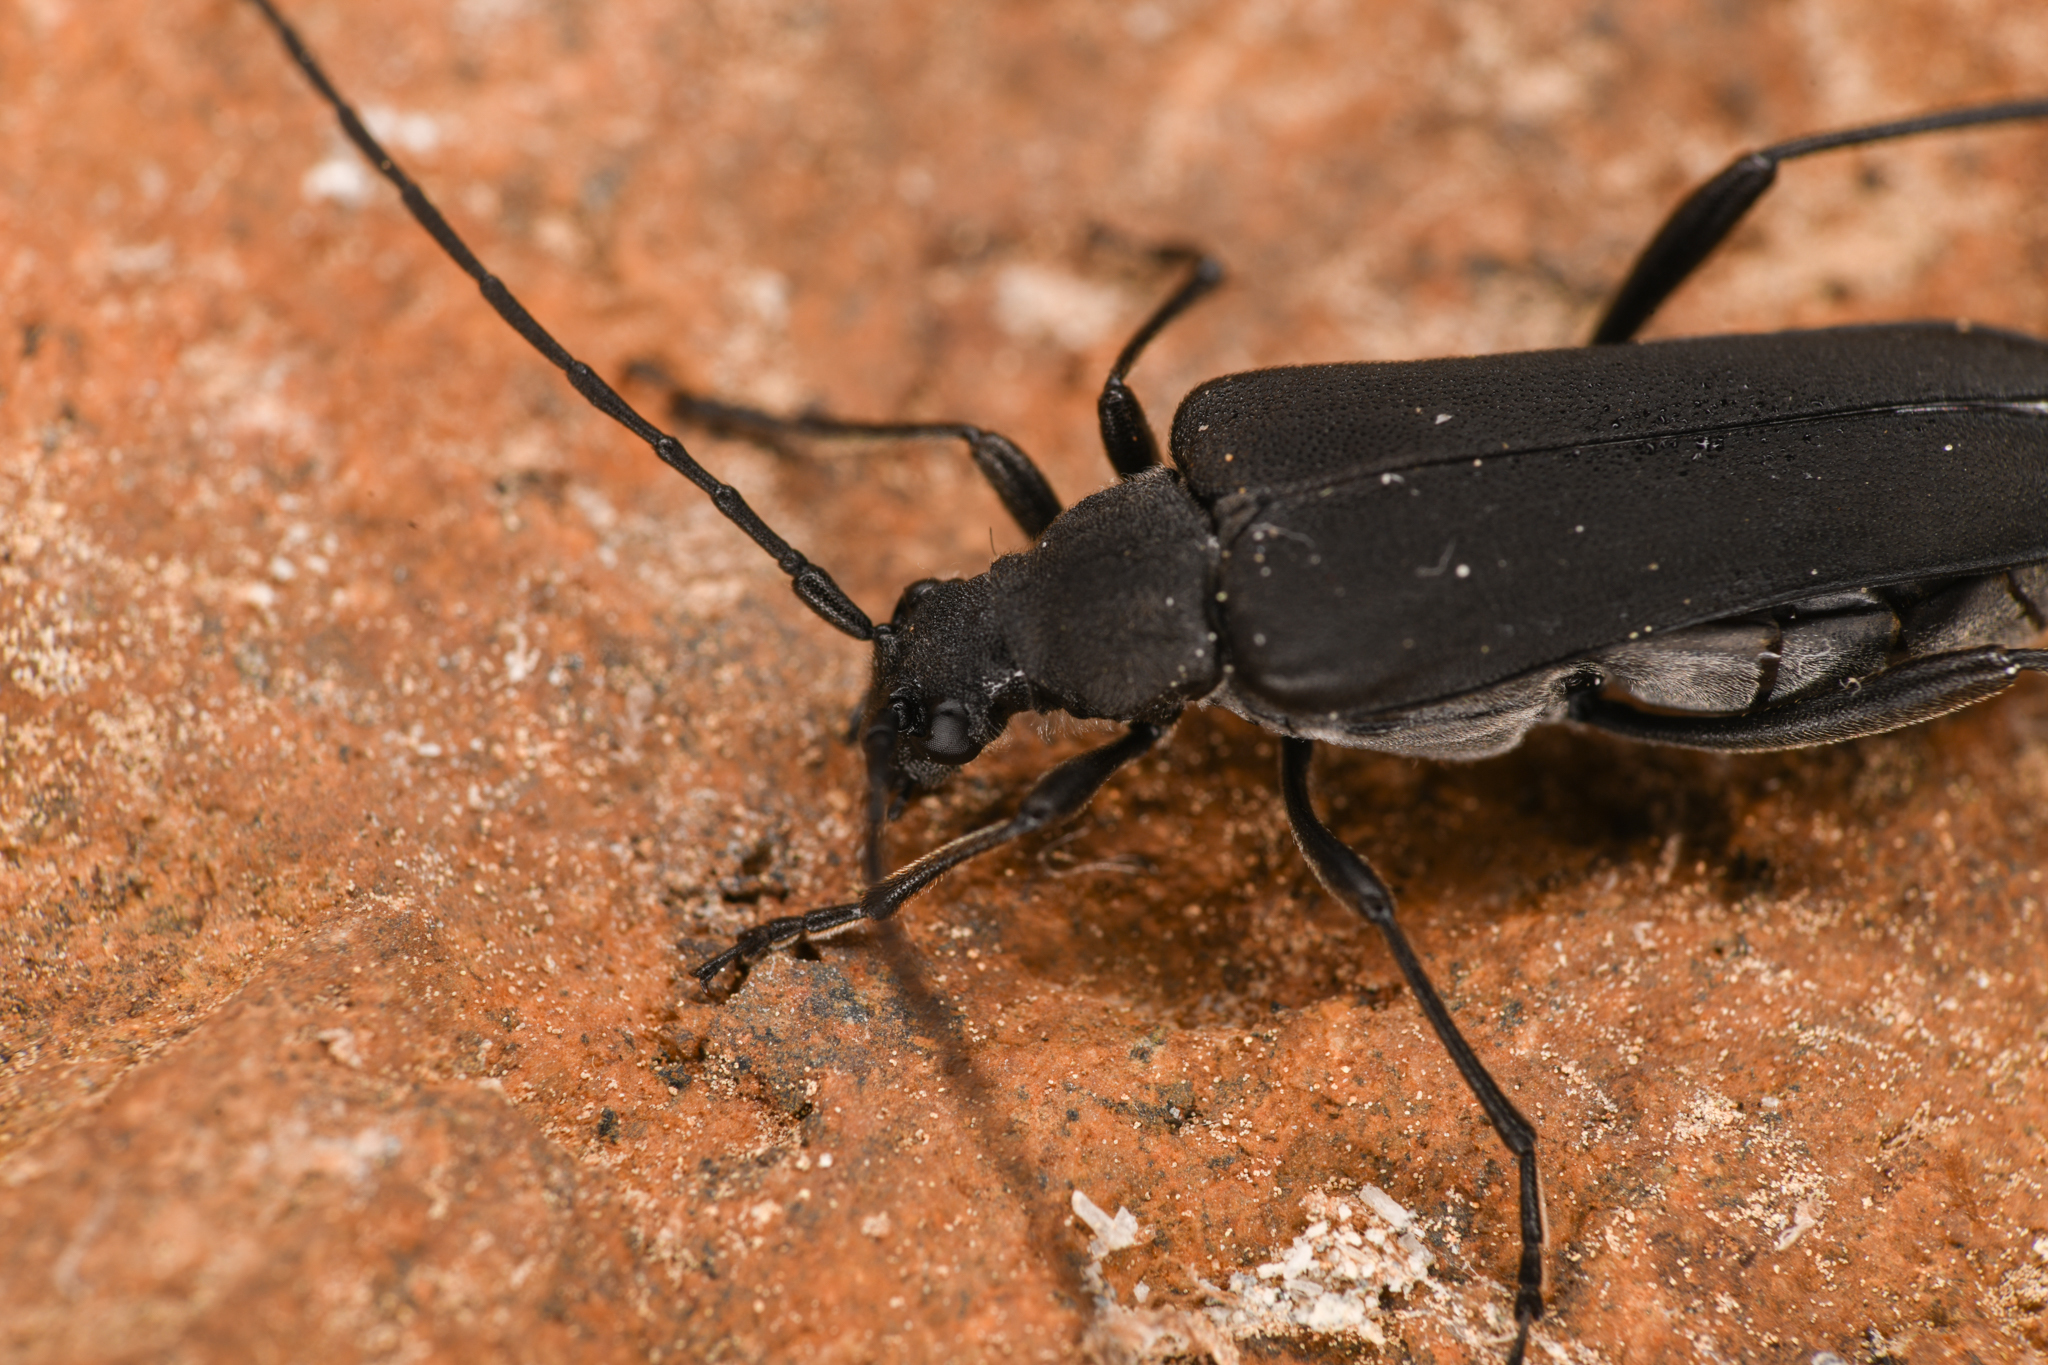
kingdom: Animalia
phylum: Arthropoda
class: Insecta
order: Coleoptera
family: Cerambycidae
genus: Trachysida
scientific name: Trachysida aspera
